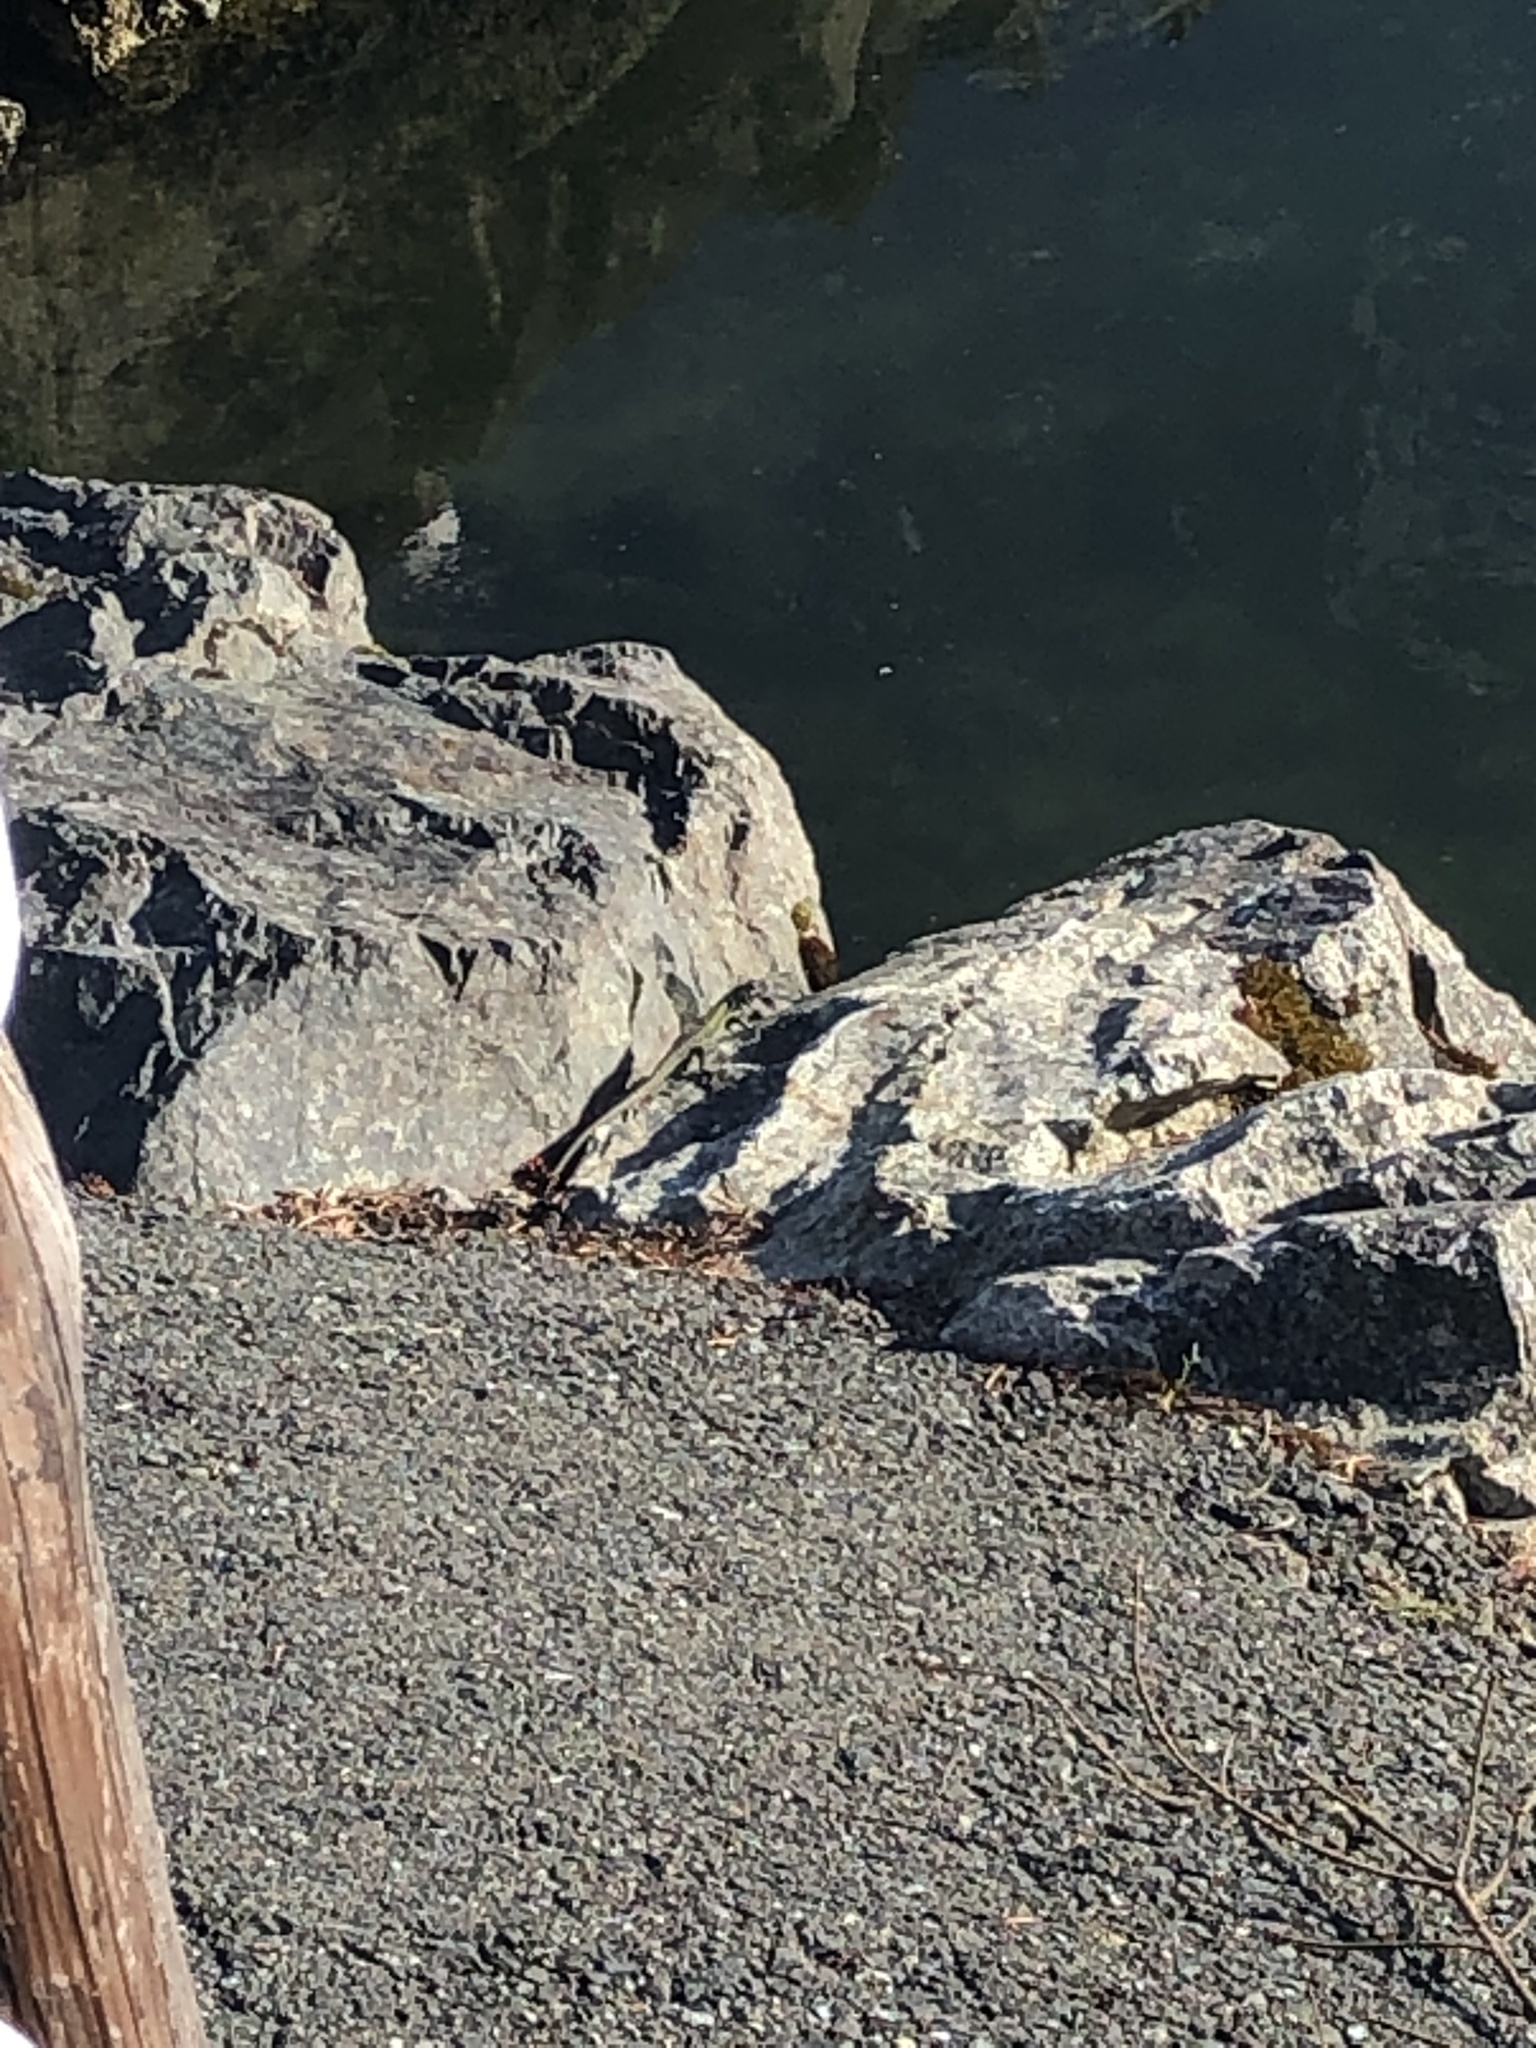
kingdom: Animalia
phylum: Chordata
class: Squamata
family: Lacertidae
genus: Podarcis
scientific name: Podarcis muralis
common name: Common wall lizard
